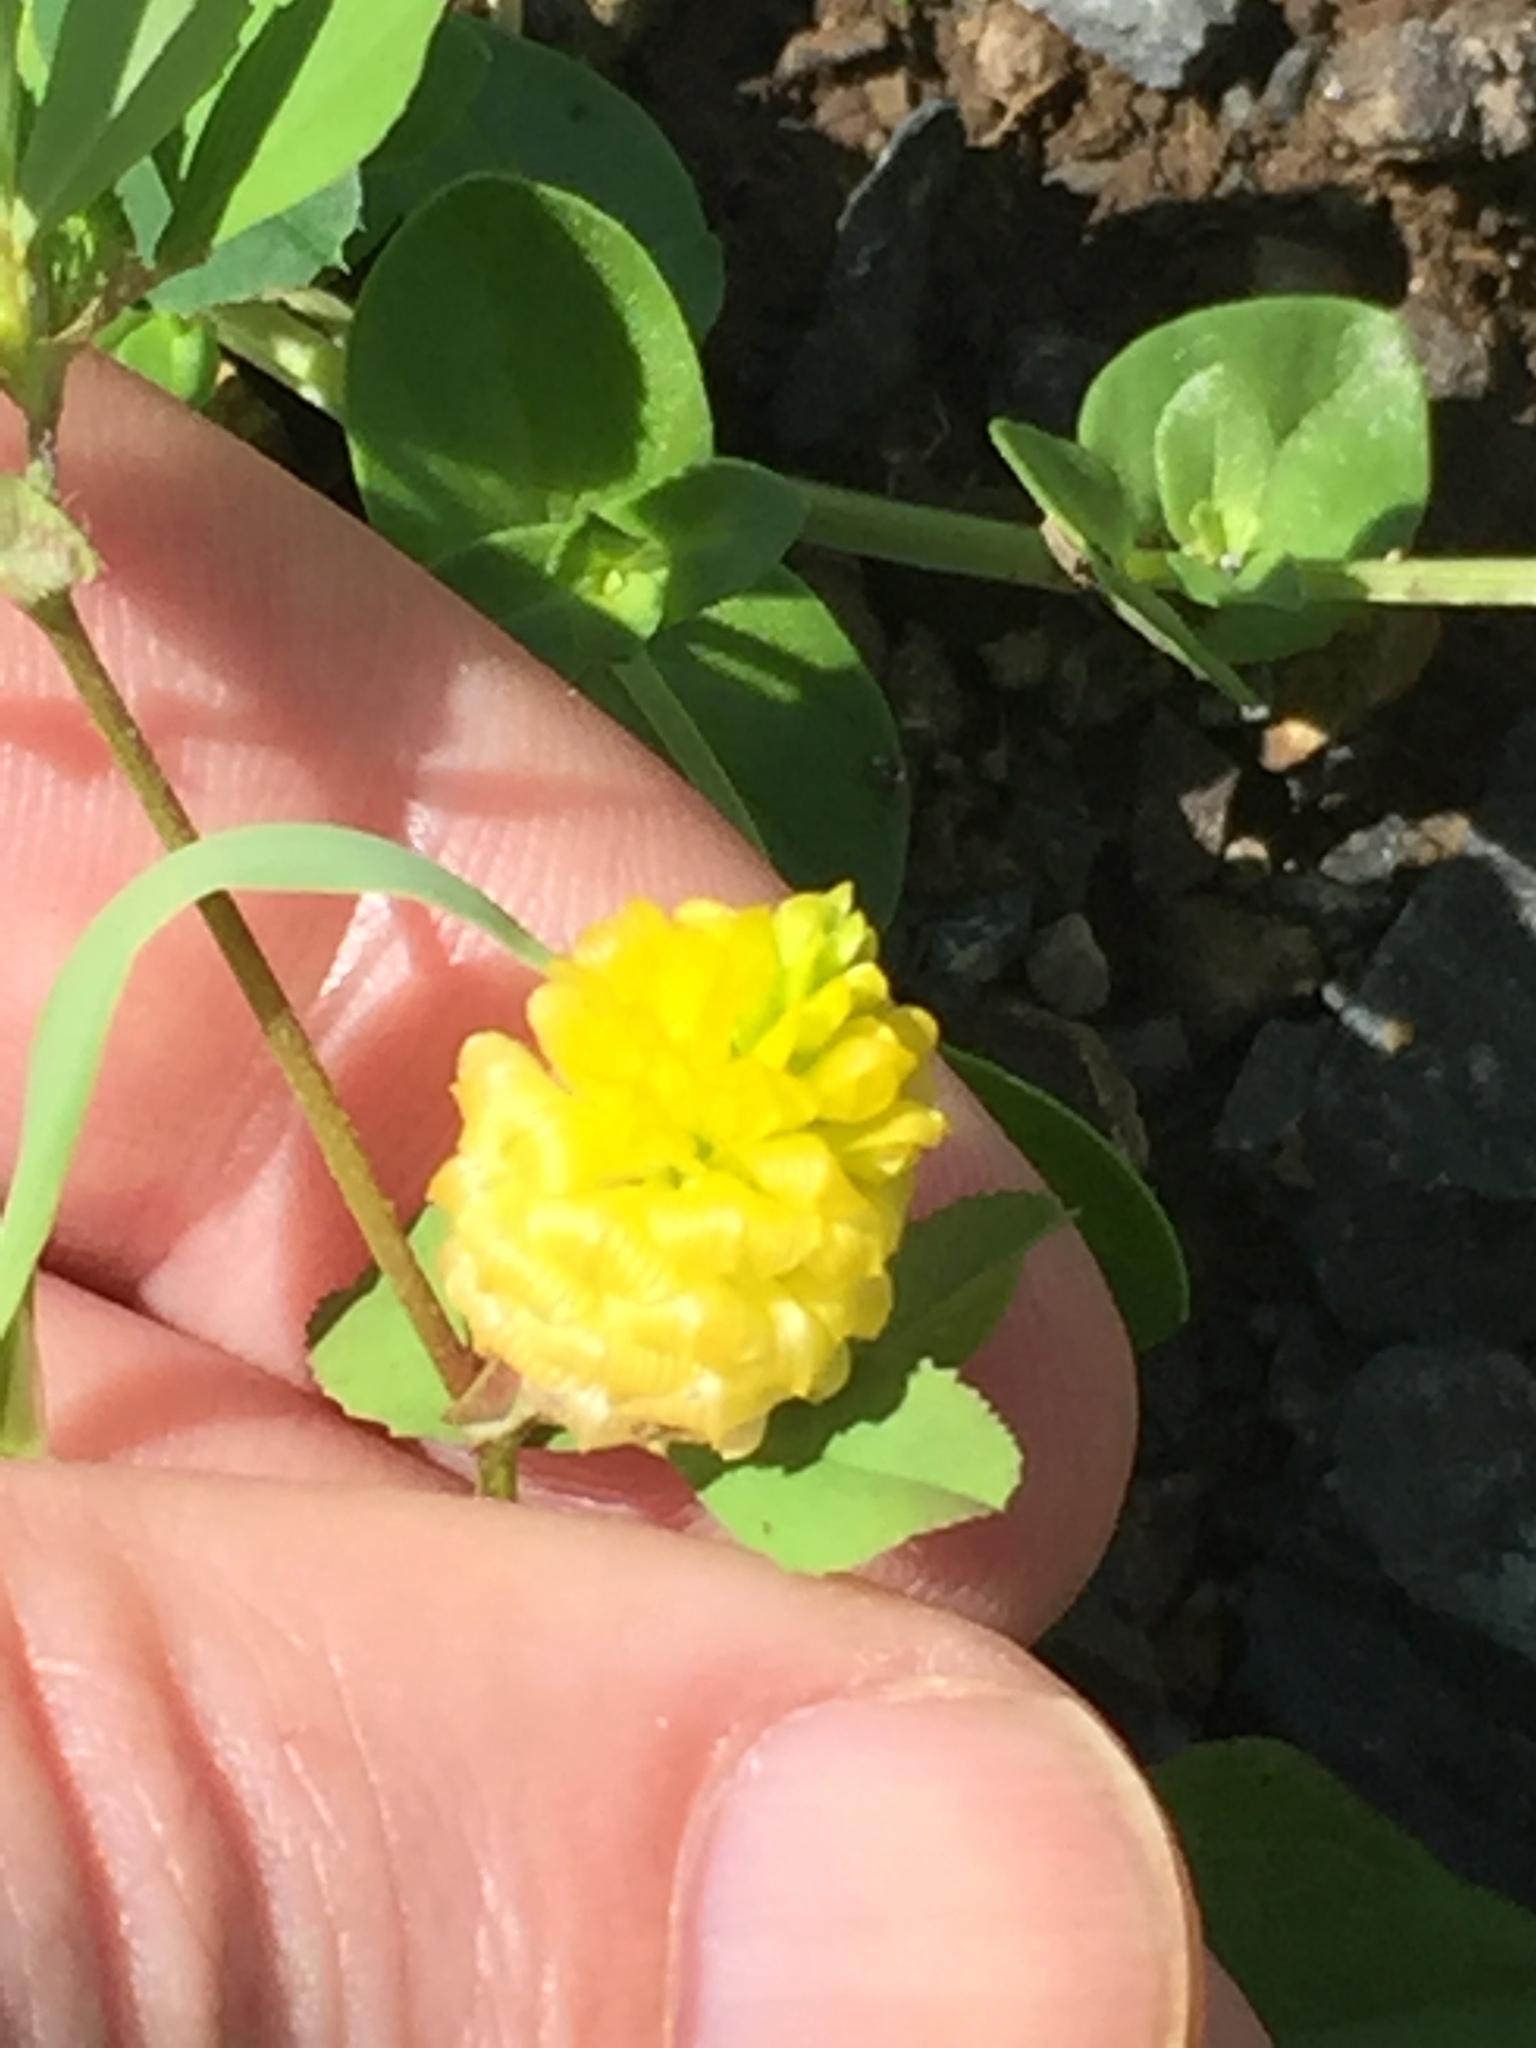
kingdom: Plantae
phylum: Tracheophyta
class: Magnoliopsida
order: Fabales
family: Fabaceae
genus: Trifolium
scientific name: Trifolium campestre
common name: Field clover
